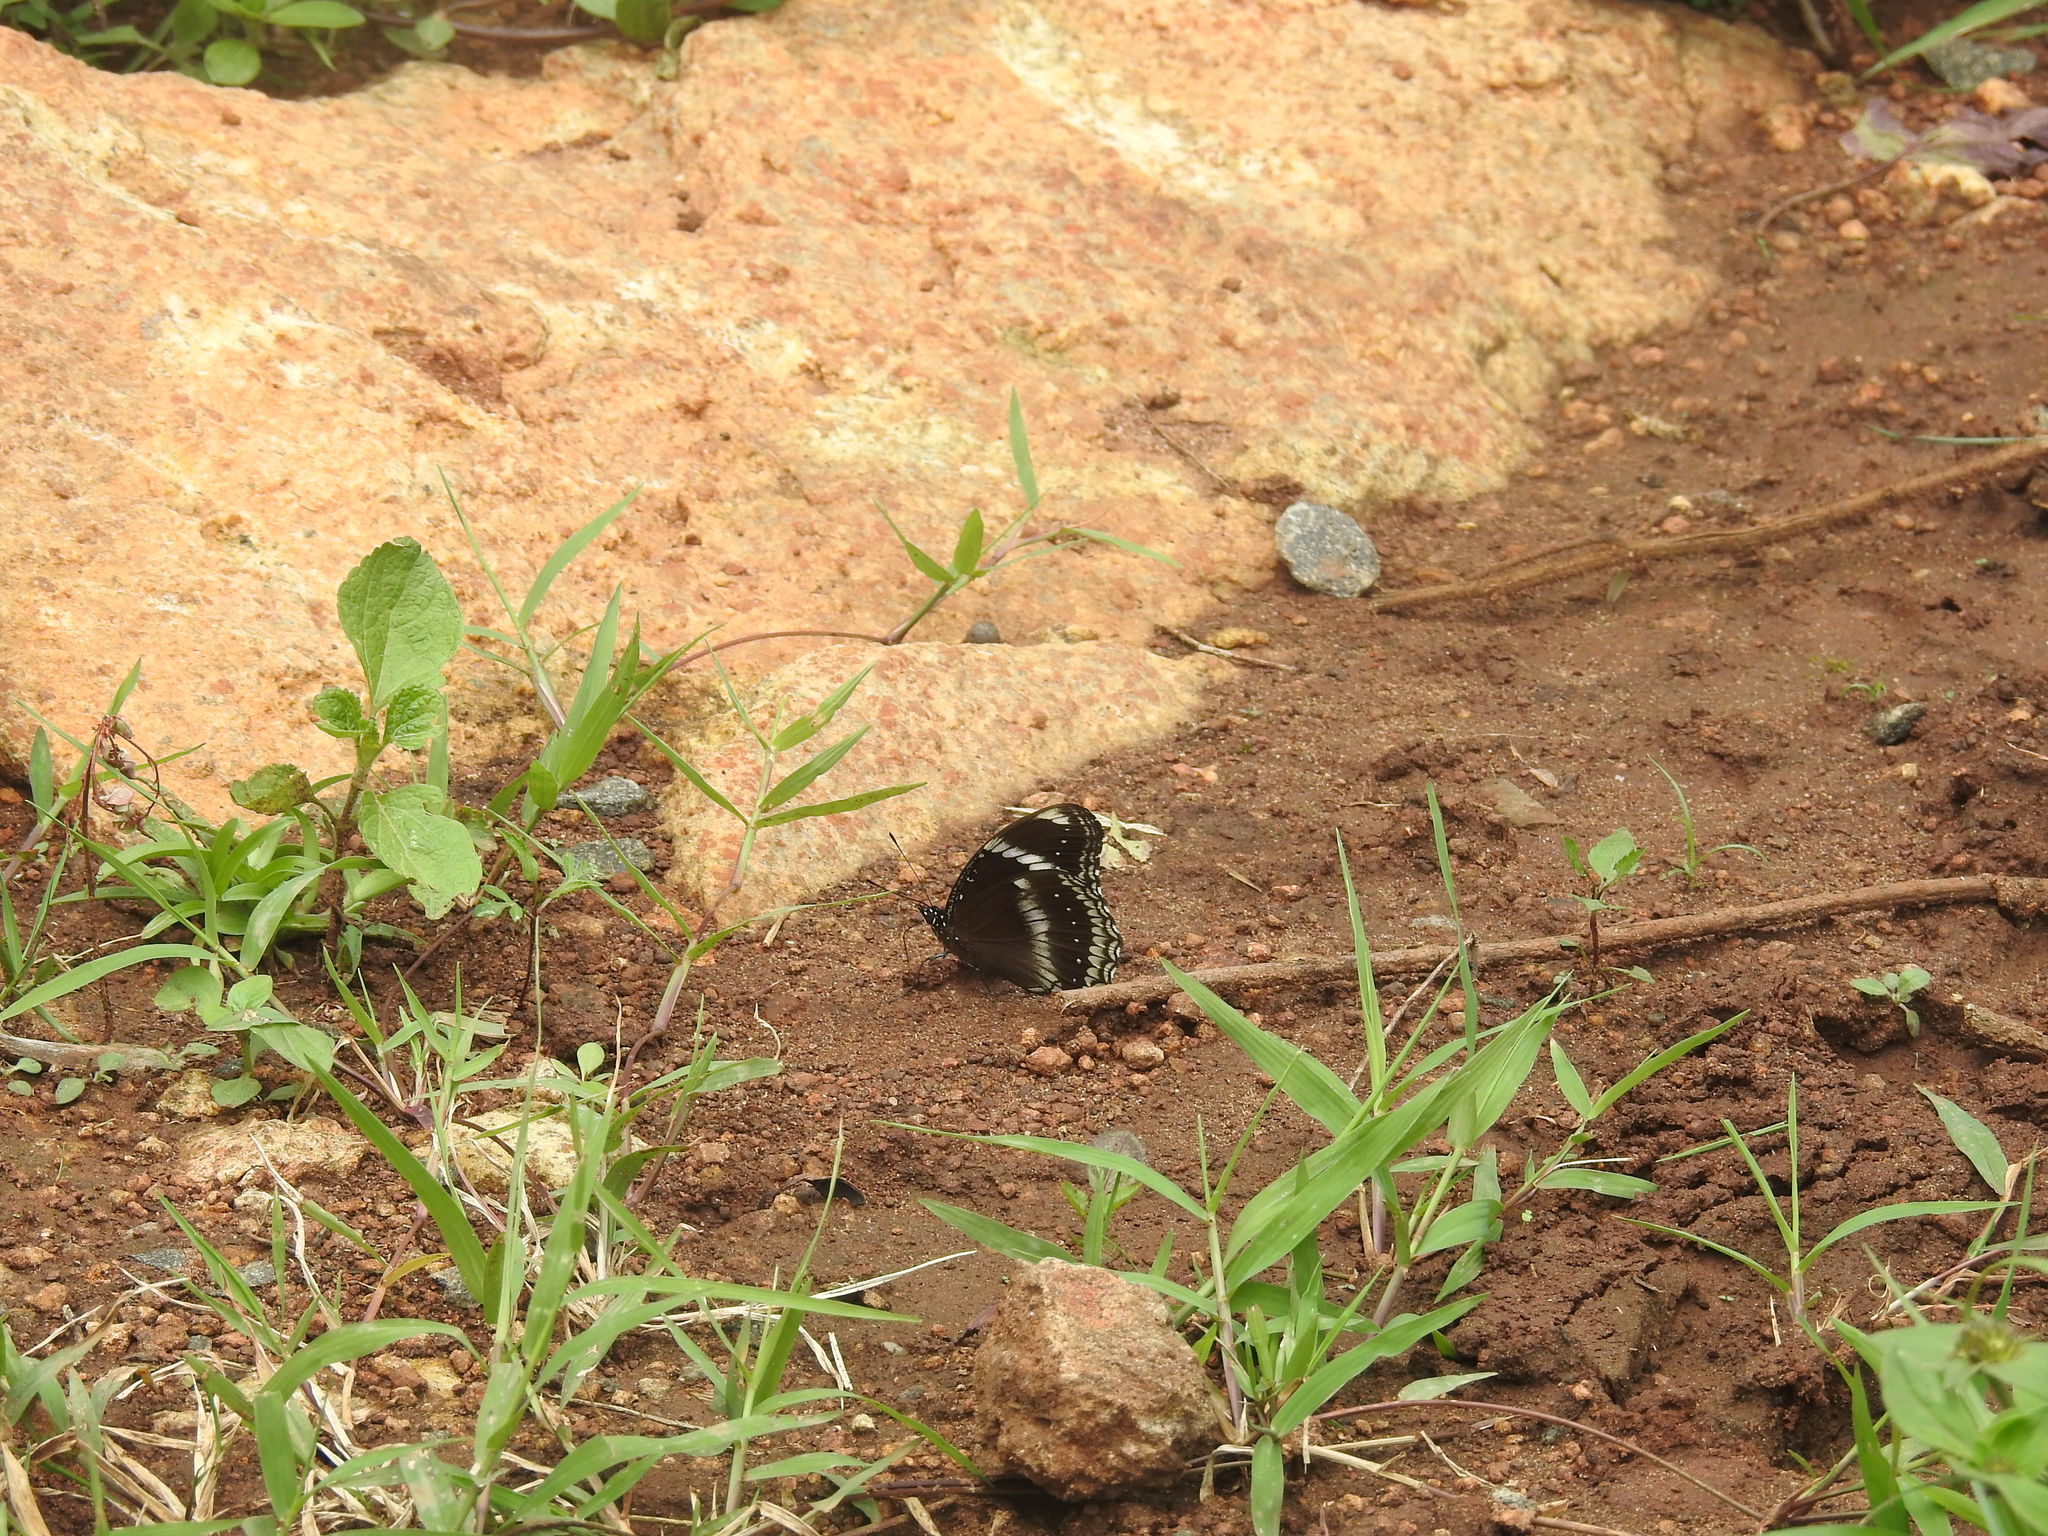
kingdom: Animalia
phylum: Arthropoda
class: Insecta
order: Lepidoptera
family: Nymphalidae
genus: Hypolimnas
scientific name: Hypolimnas bolina
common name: Great eggfly
